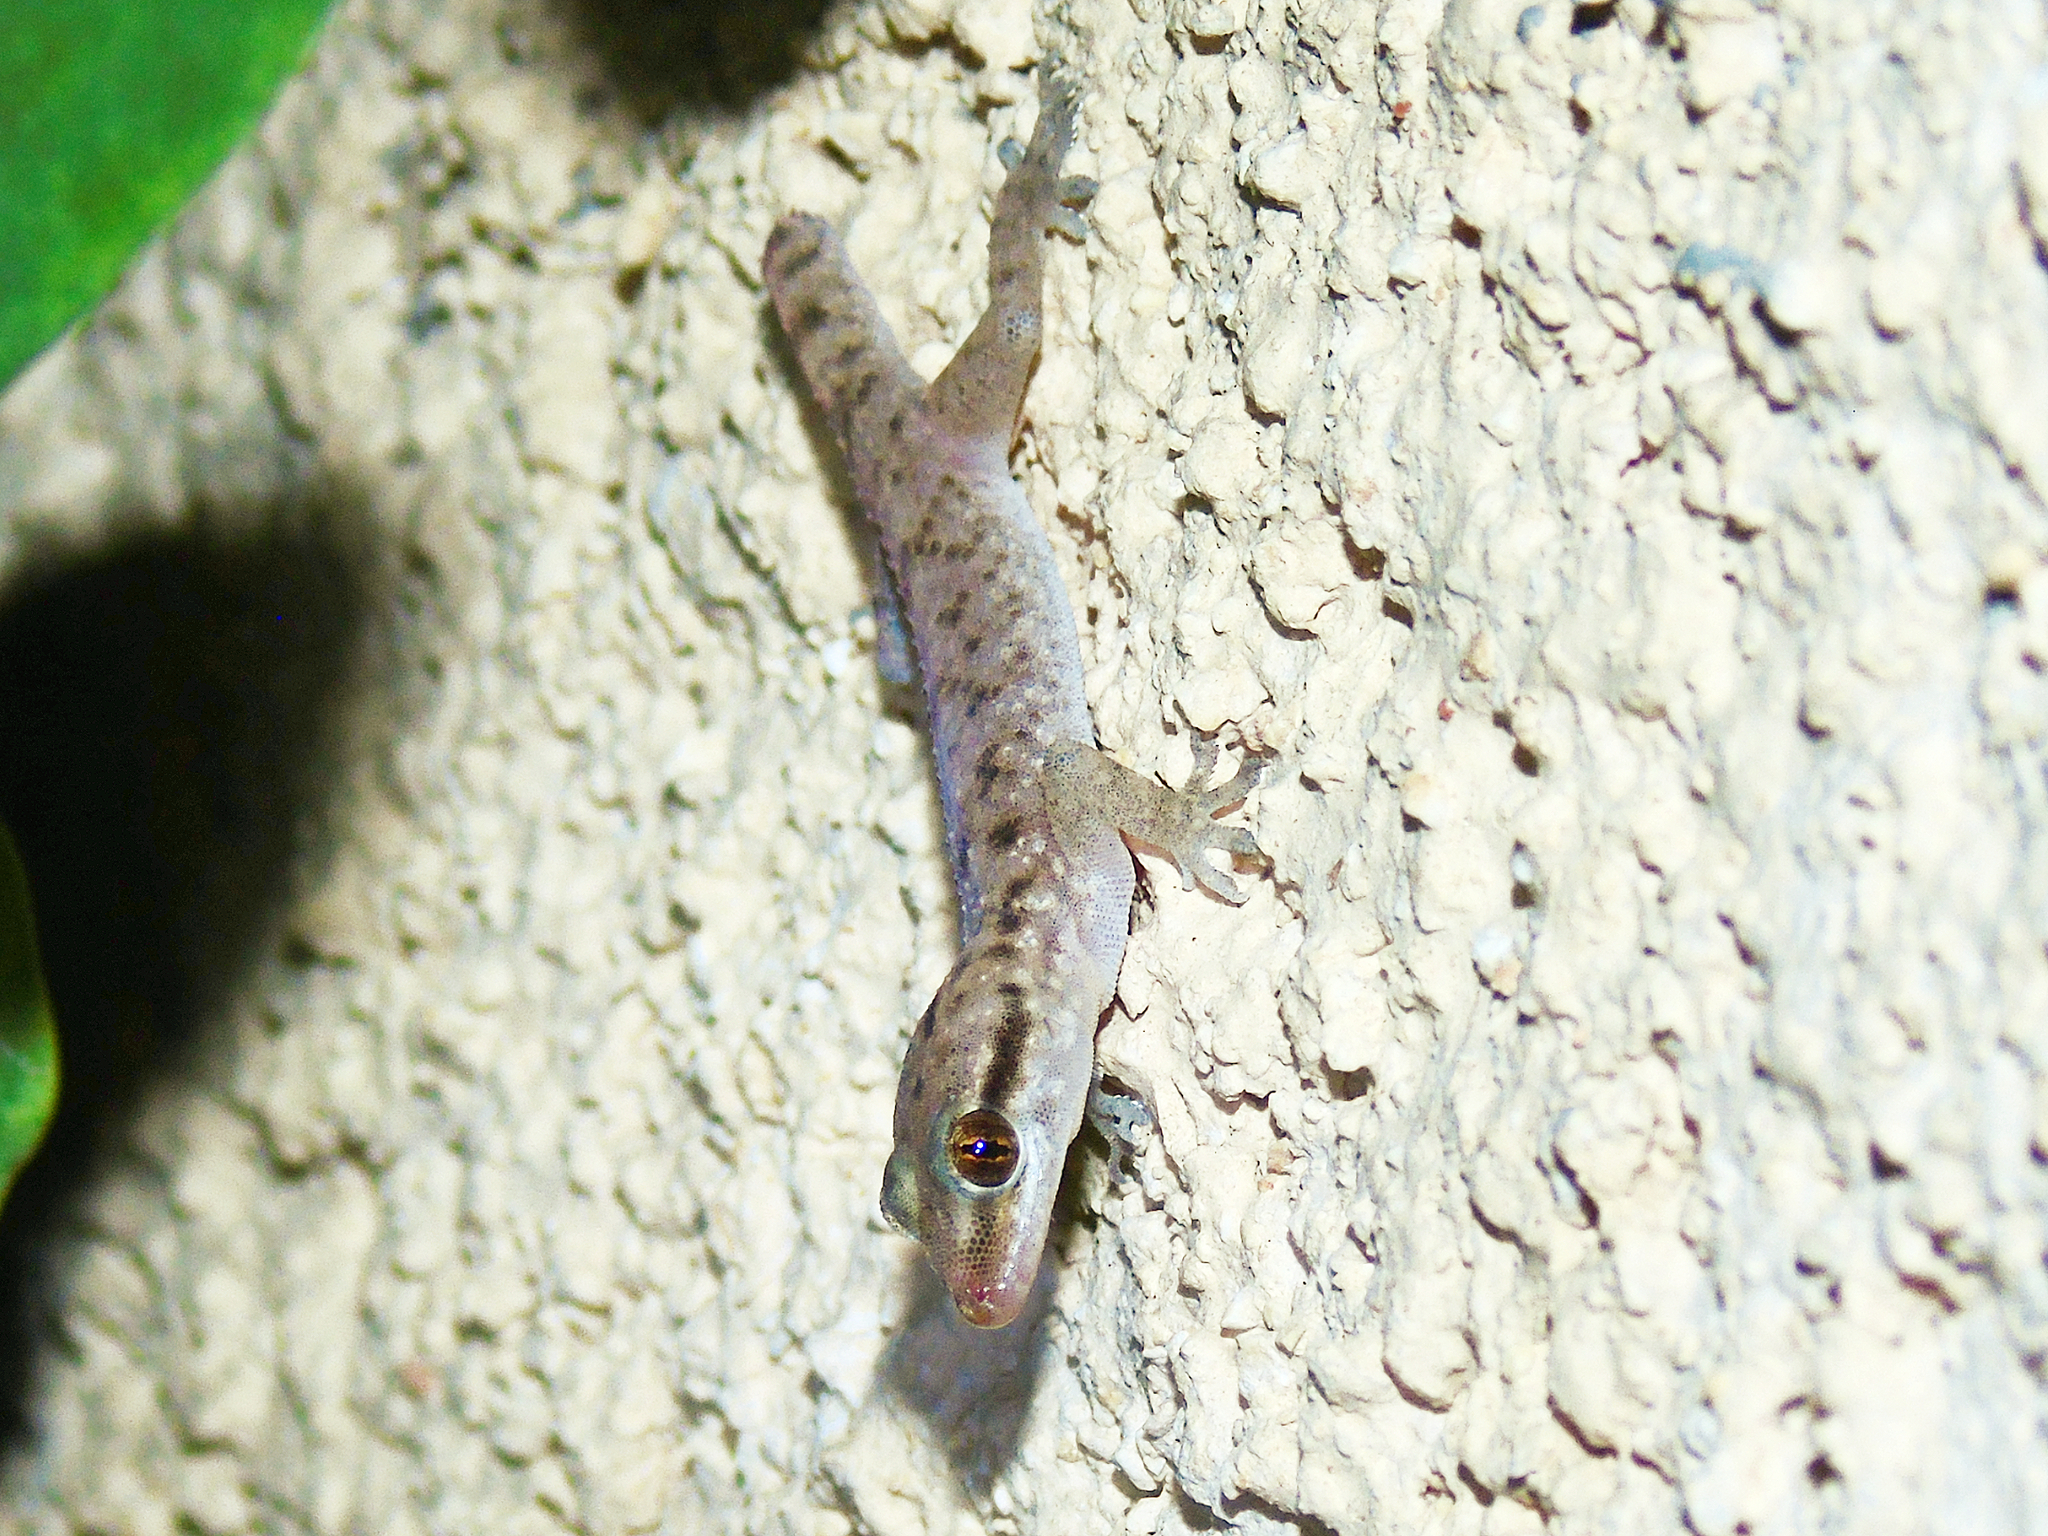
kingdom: Animalia
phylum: Chordata
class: Squamata
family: Gekkonidae
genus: Hemidactylus
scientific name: Hemidactylus hajarensis
